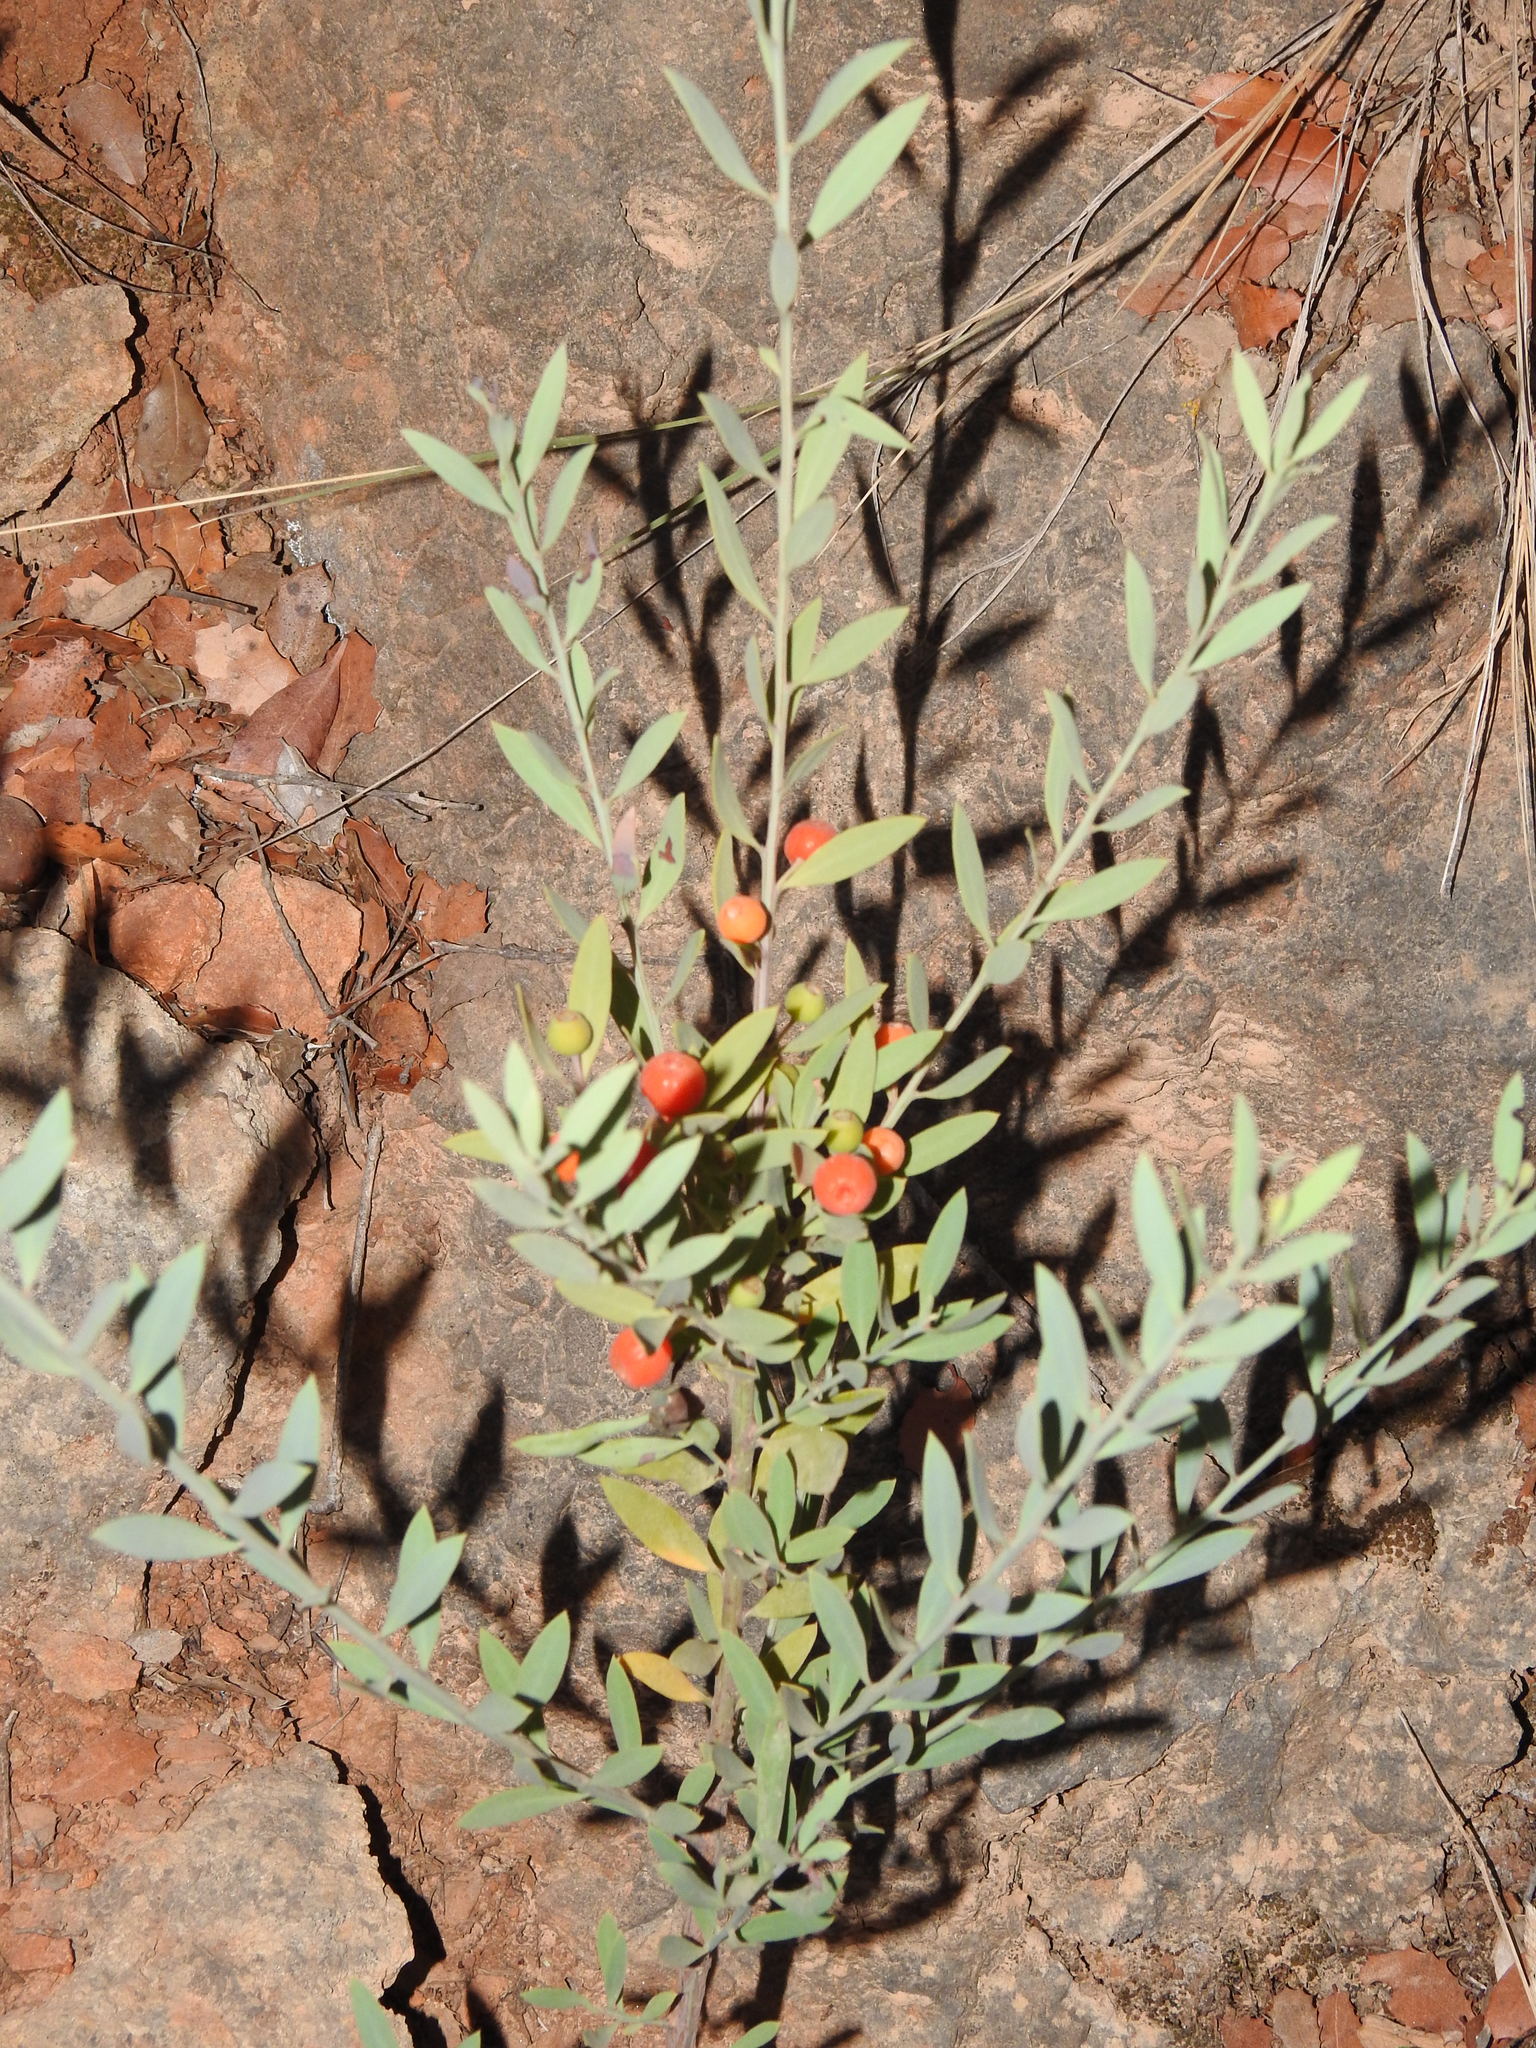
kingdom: Plantae
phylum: Tracheophyta
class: Magnoliopsida
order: Santalales
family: Santalaceae
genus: Osyris
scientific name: Osyris lanceolata
